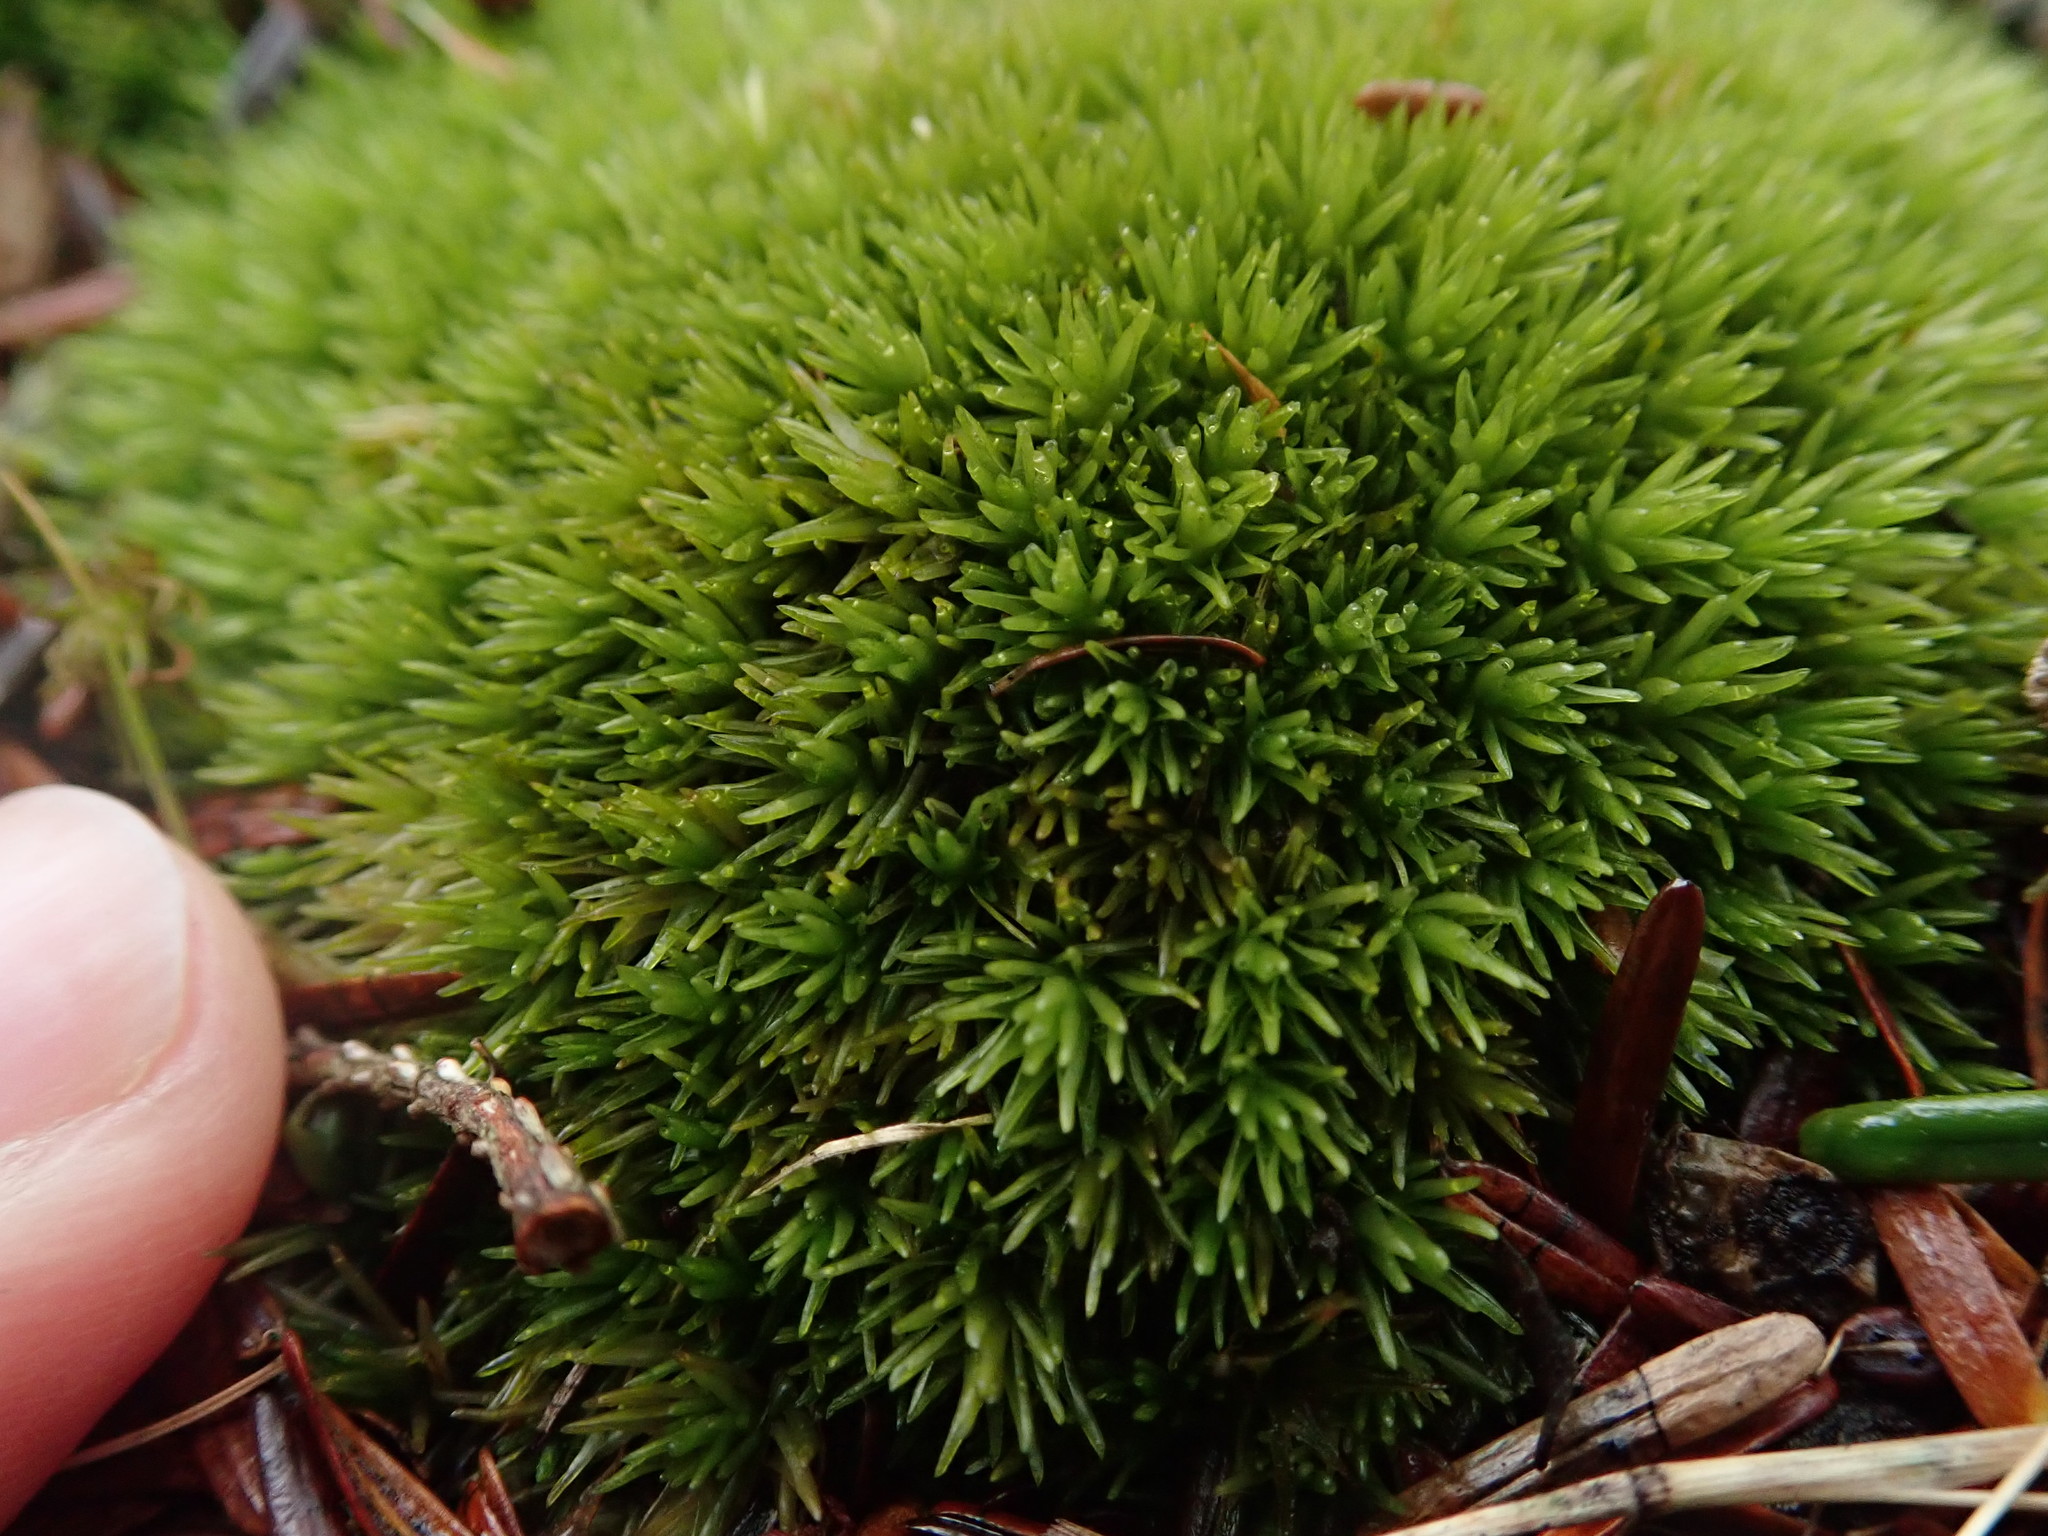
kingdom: Plantae
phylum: Bryophyta
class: Bryopsida
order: Dicranales
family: Leucobryaceae
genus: Leucobryum
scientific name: Leucobryum glaucum
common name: Large white-moss
